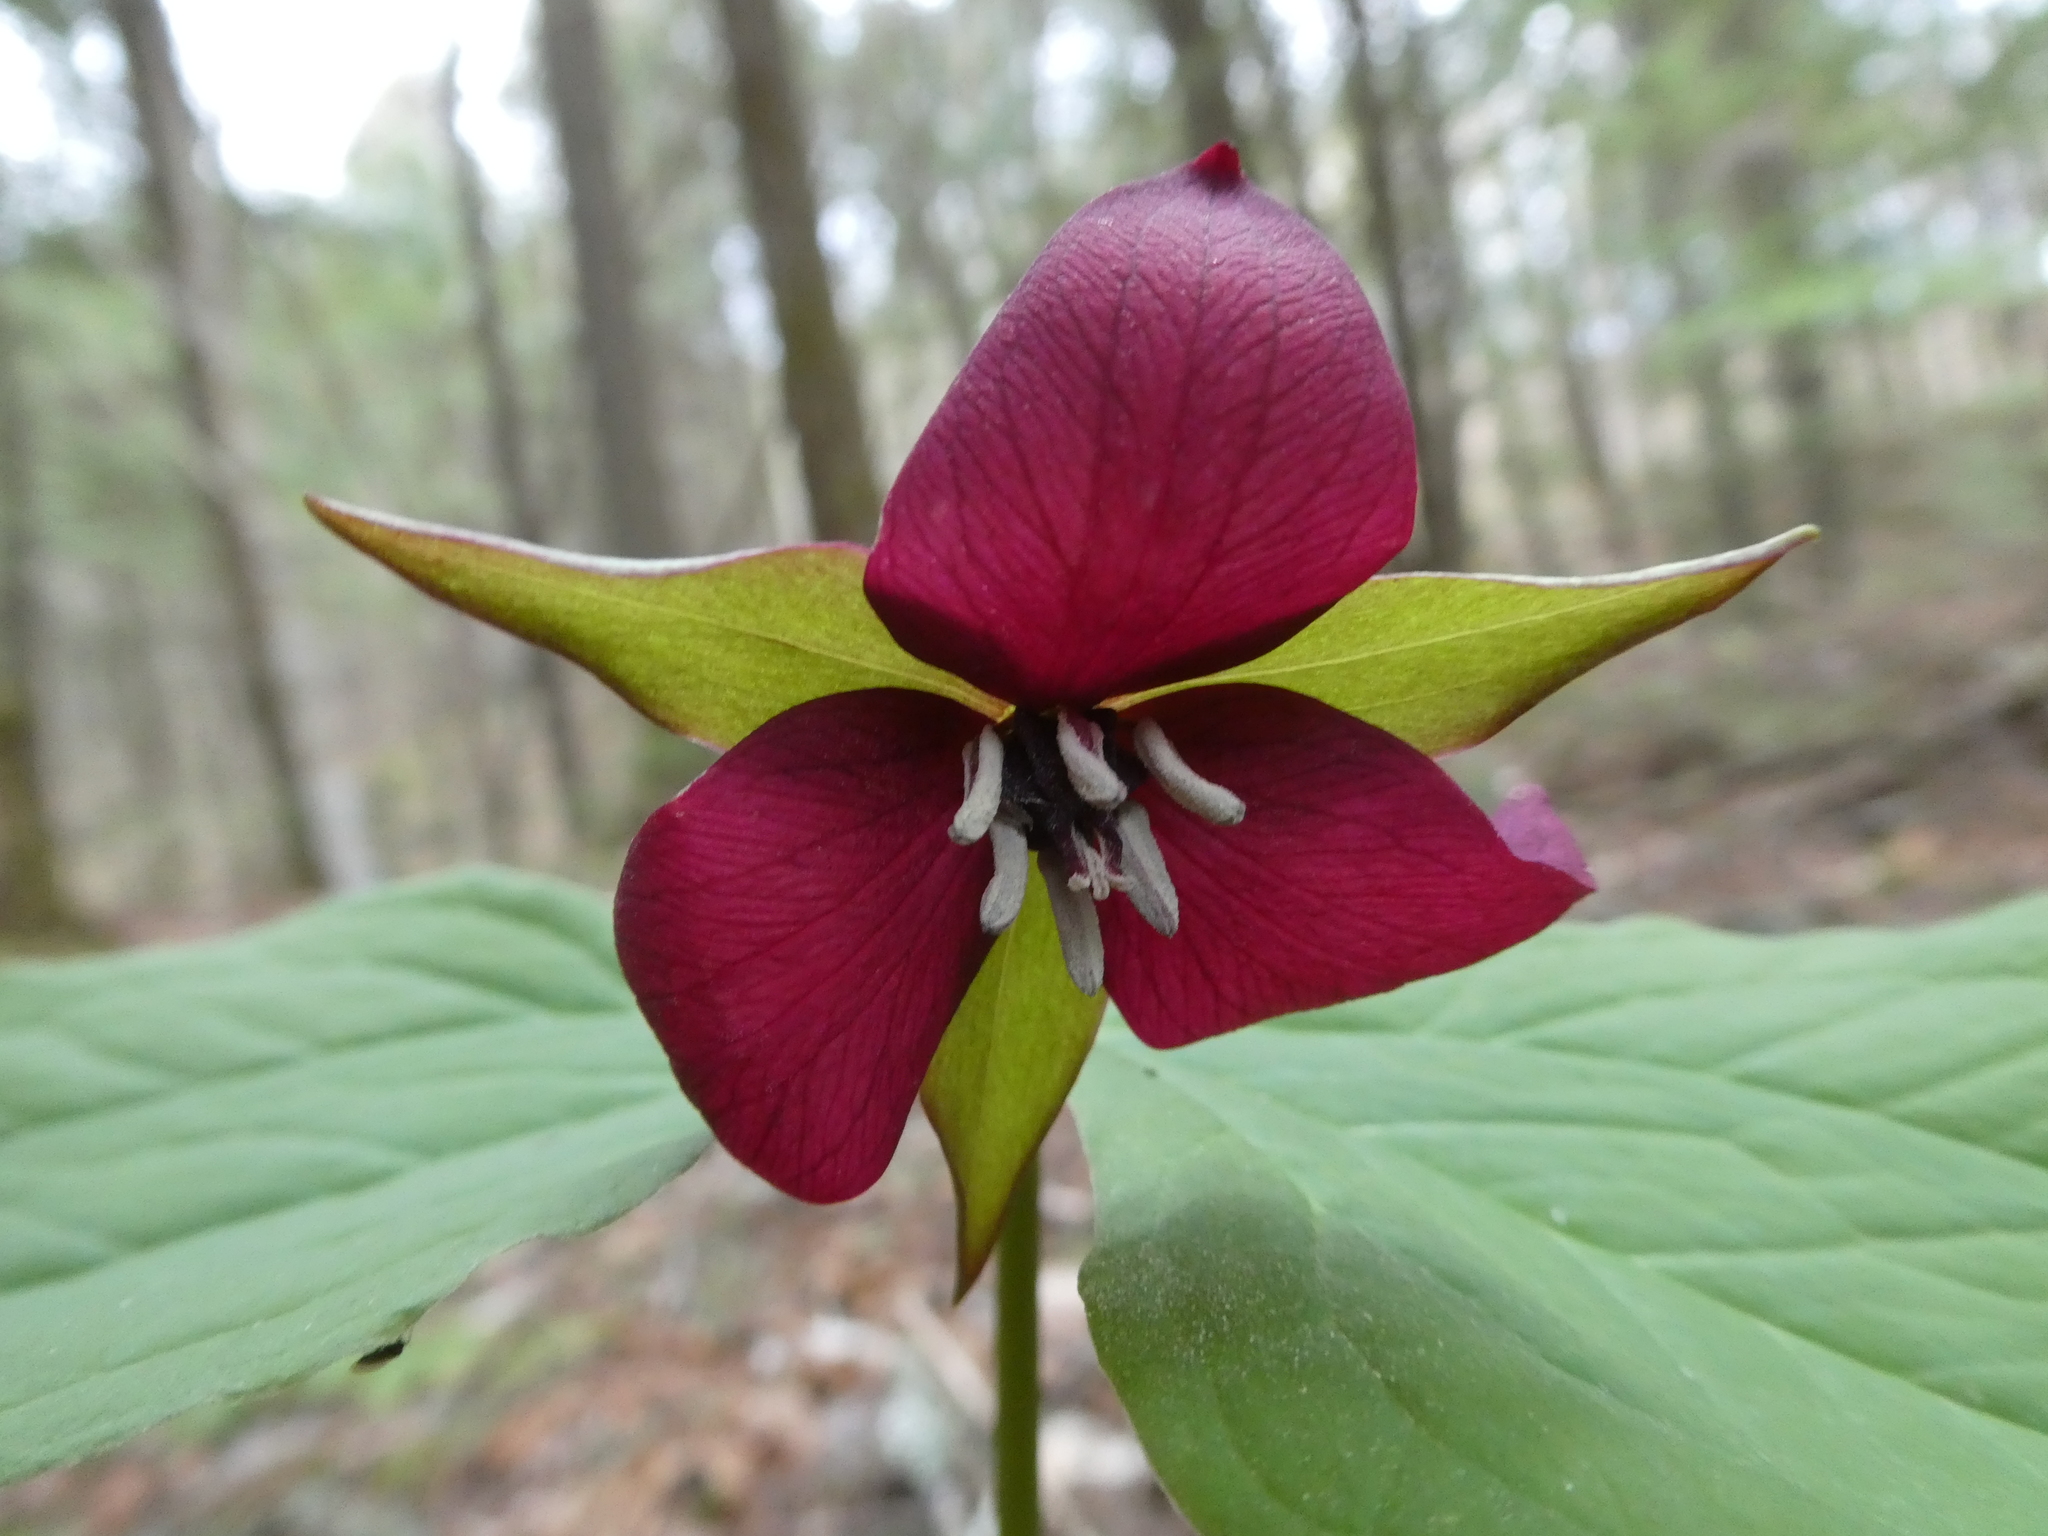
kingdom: Plantae
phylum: Tracheophyta
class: Liliopsida
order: Liliales
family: Melanthiaceae
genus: Trillium
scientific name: Trillium erectum
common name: Purple trillium
